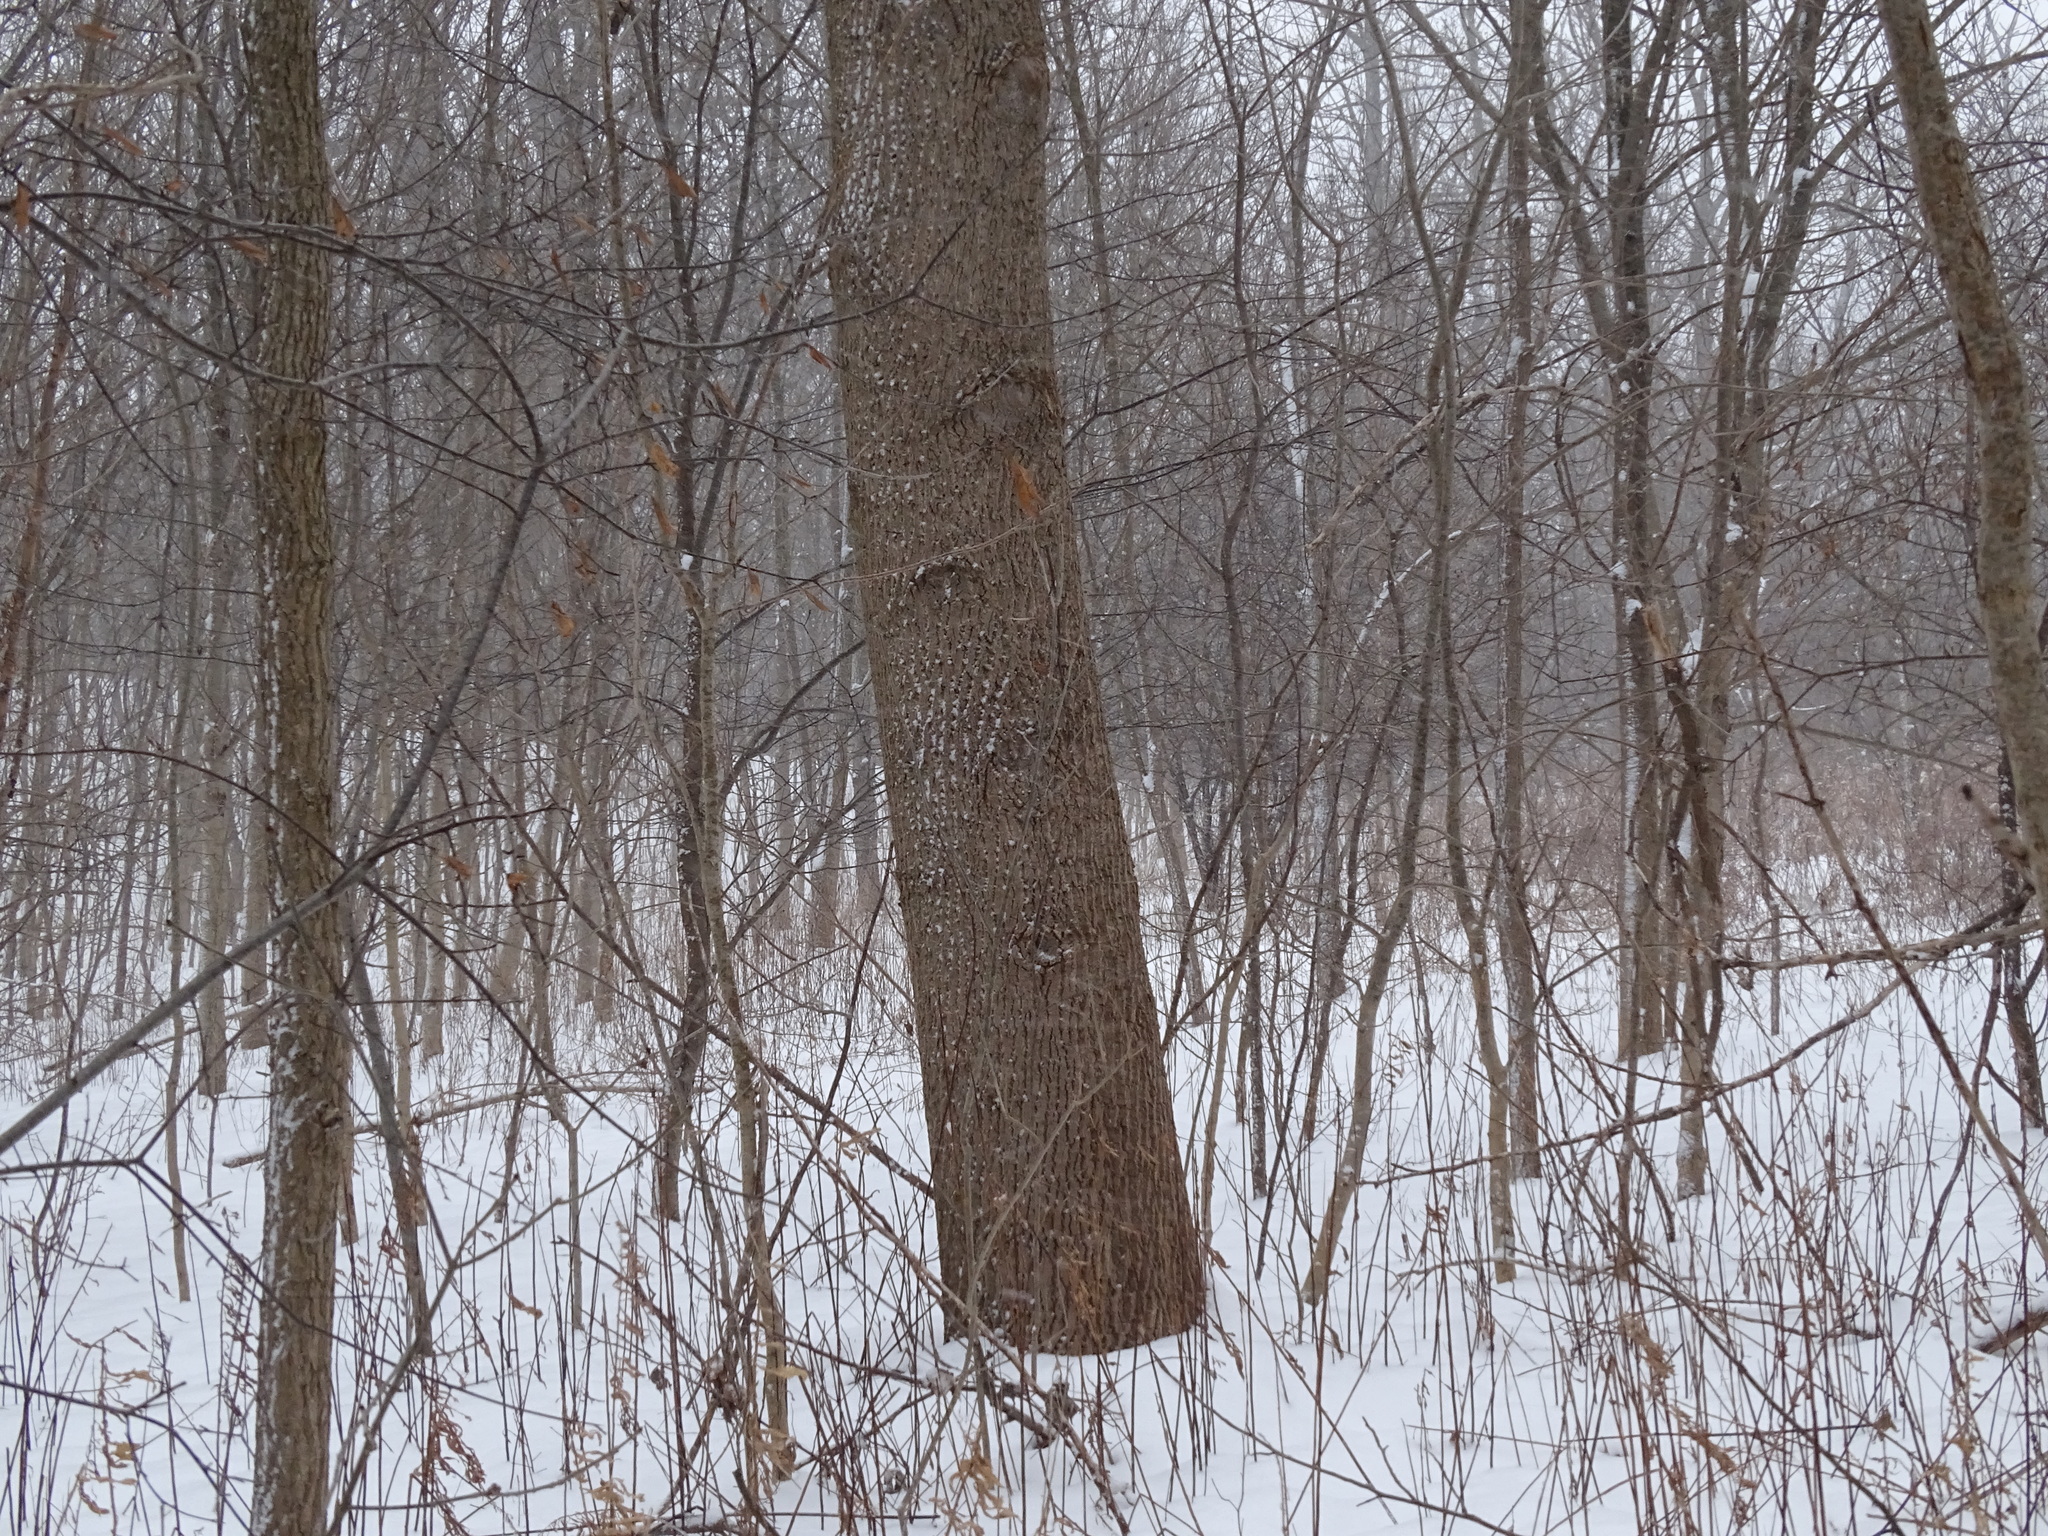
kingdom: Plantae
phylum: Tracheophyta
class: Magnoliopsida
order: Magnoliales
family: Magnoliaceae
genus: Liriodendron
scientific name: Liriodendron tulipifera
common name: Tulip tree
